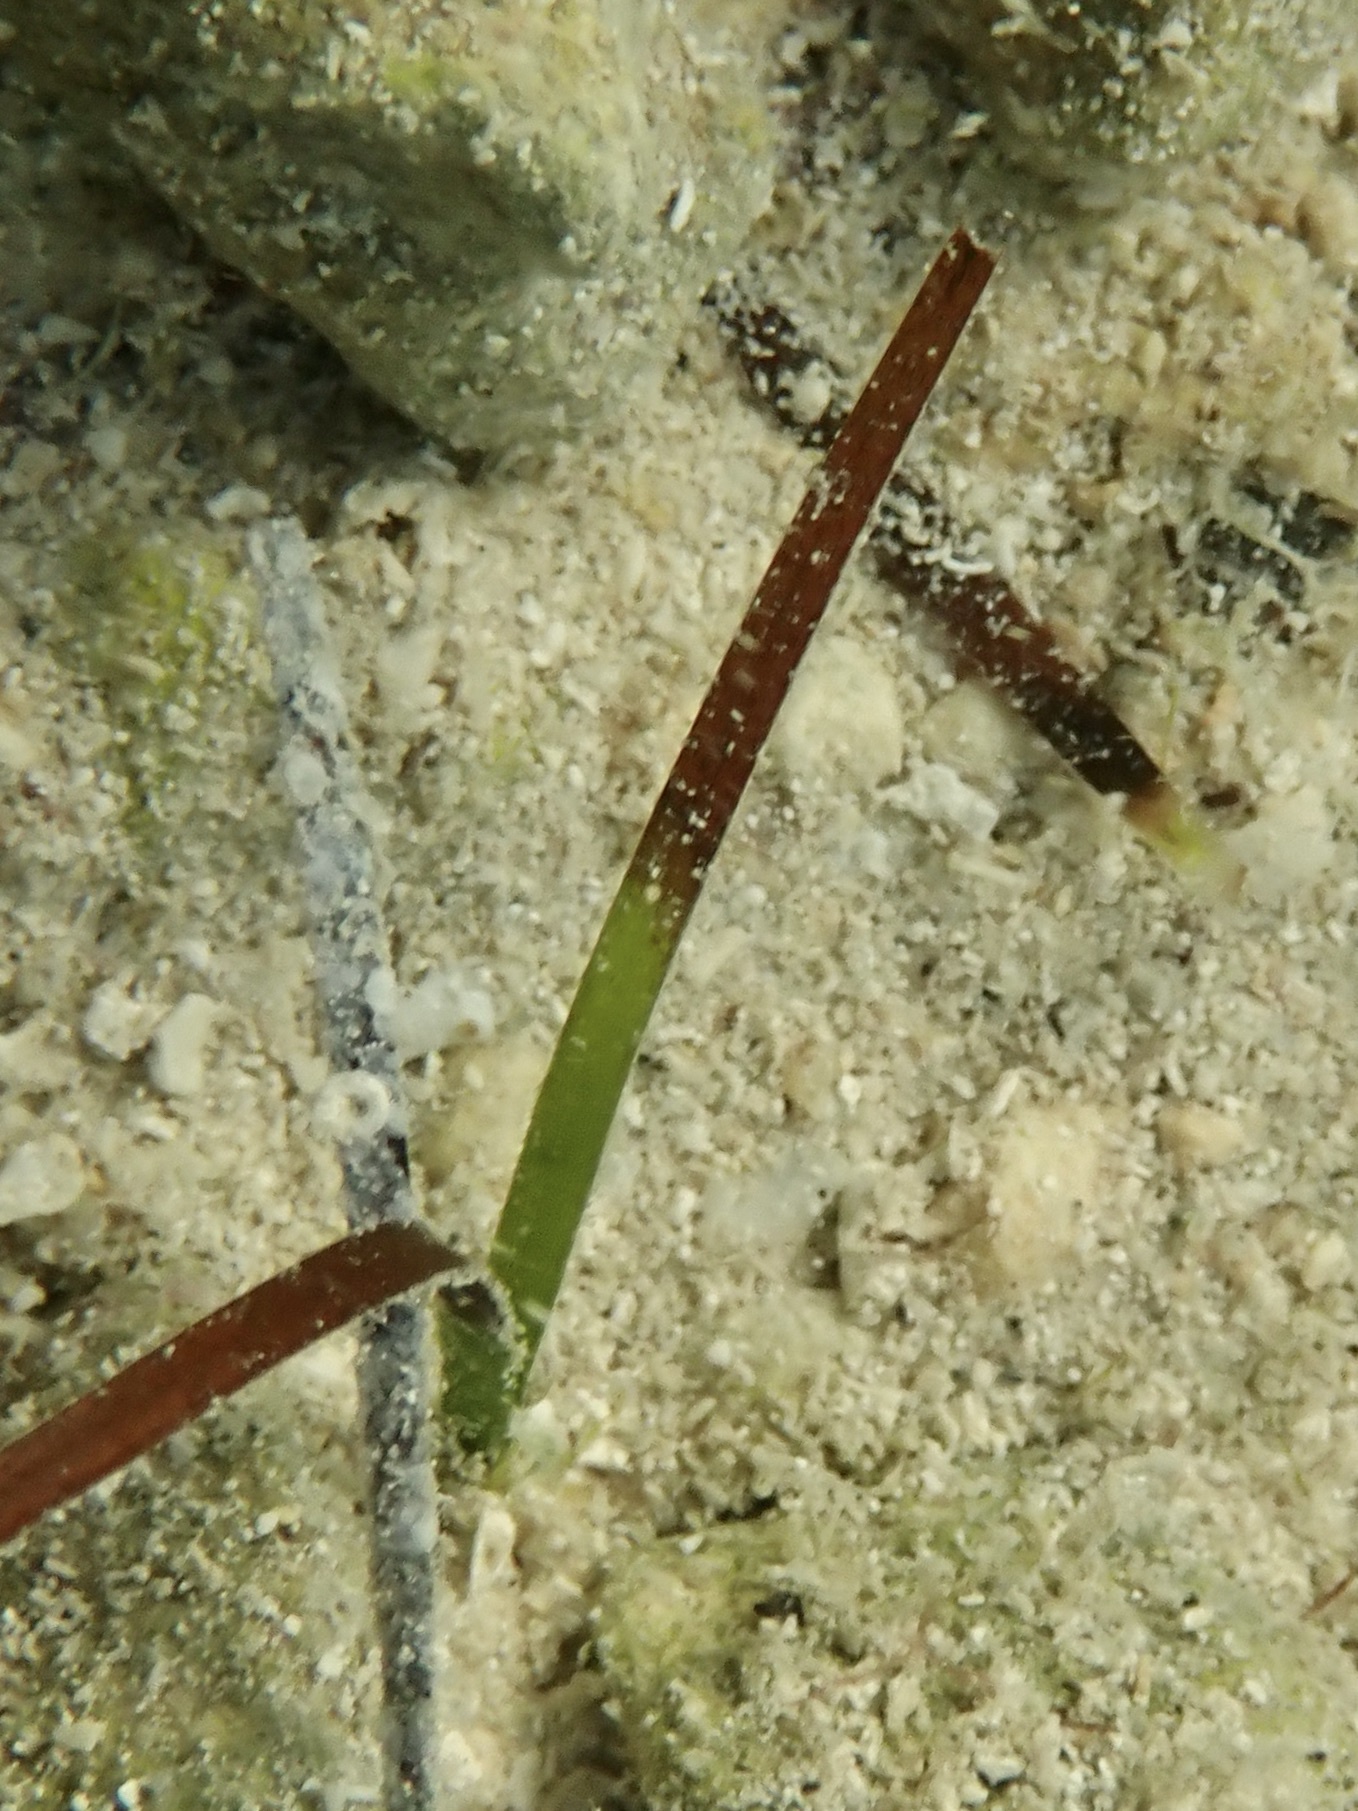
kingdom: Plantae
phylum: Tracheophyta
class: Liliopsida
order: Alismatales
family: Cymodoceaceae
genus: Halodule
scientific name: Halodule bermudensis
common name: Species code: hi
